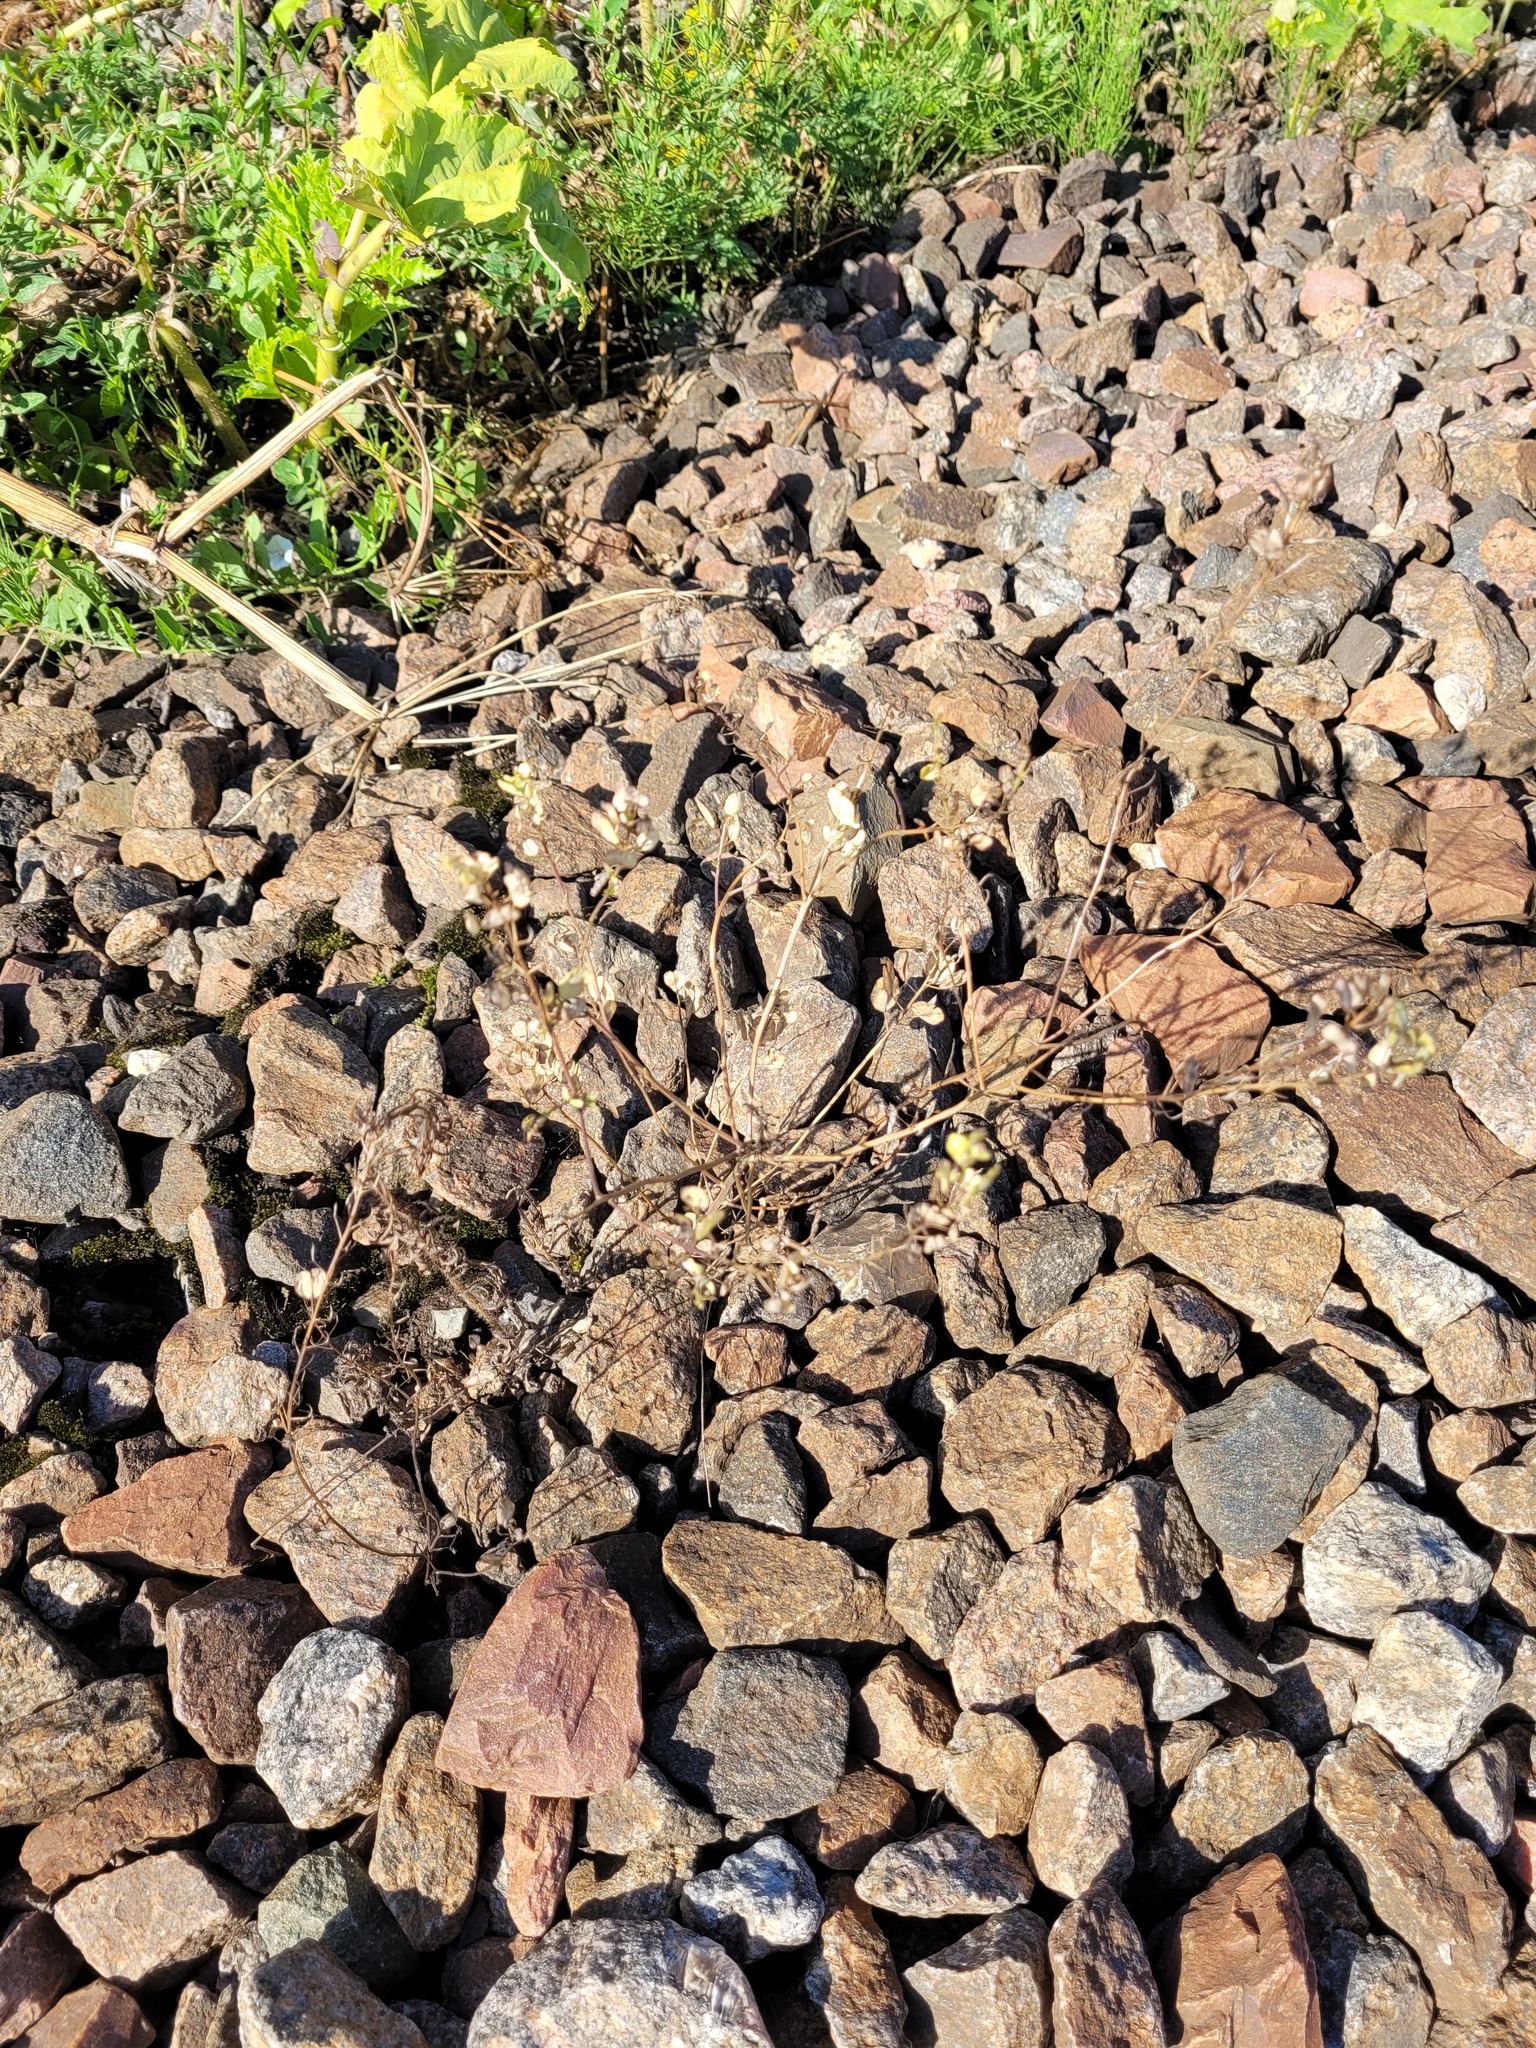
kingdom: Plantae
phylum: Tracheophyta
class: Magnoliopsida
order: Brassicales
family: Brassicaceae
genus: Thlaspi
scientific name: Thlaspi arvense
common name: Field pennycress
